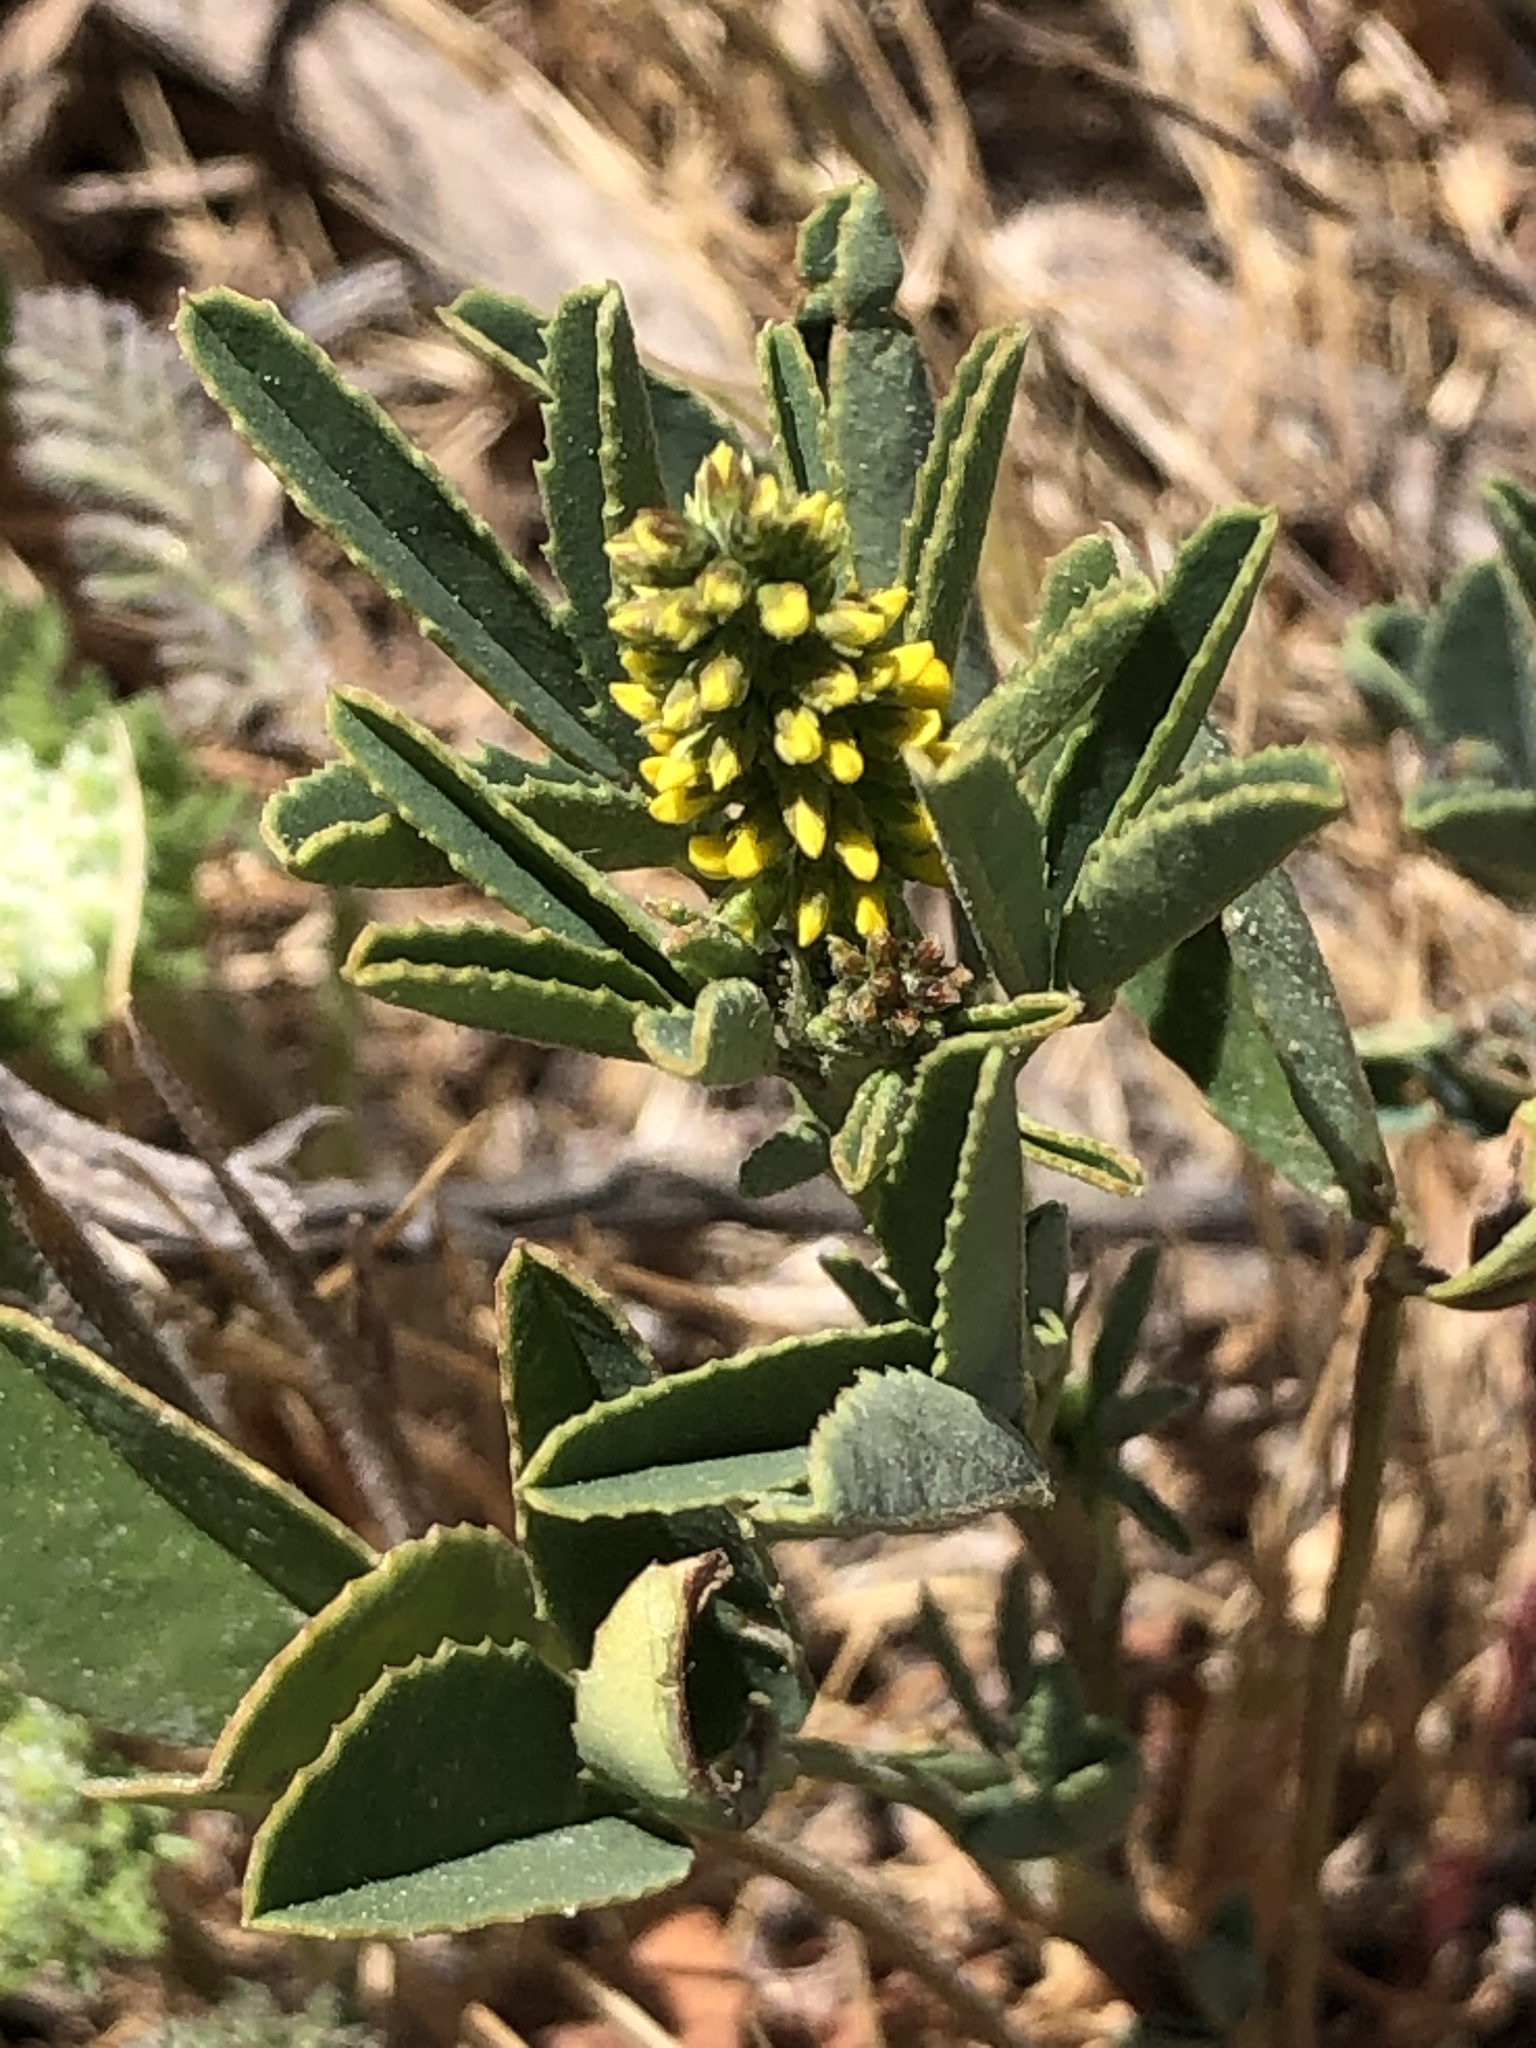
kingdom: Plantae
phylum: Tracheophyta
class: Magnoliopsida
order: Fabales
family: Fabaceae
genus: Melilotus
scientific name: Melilotus indicus
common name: Small melilot
